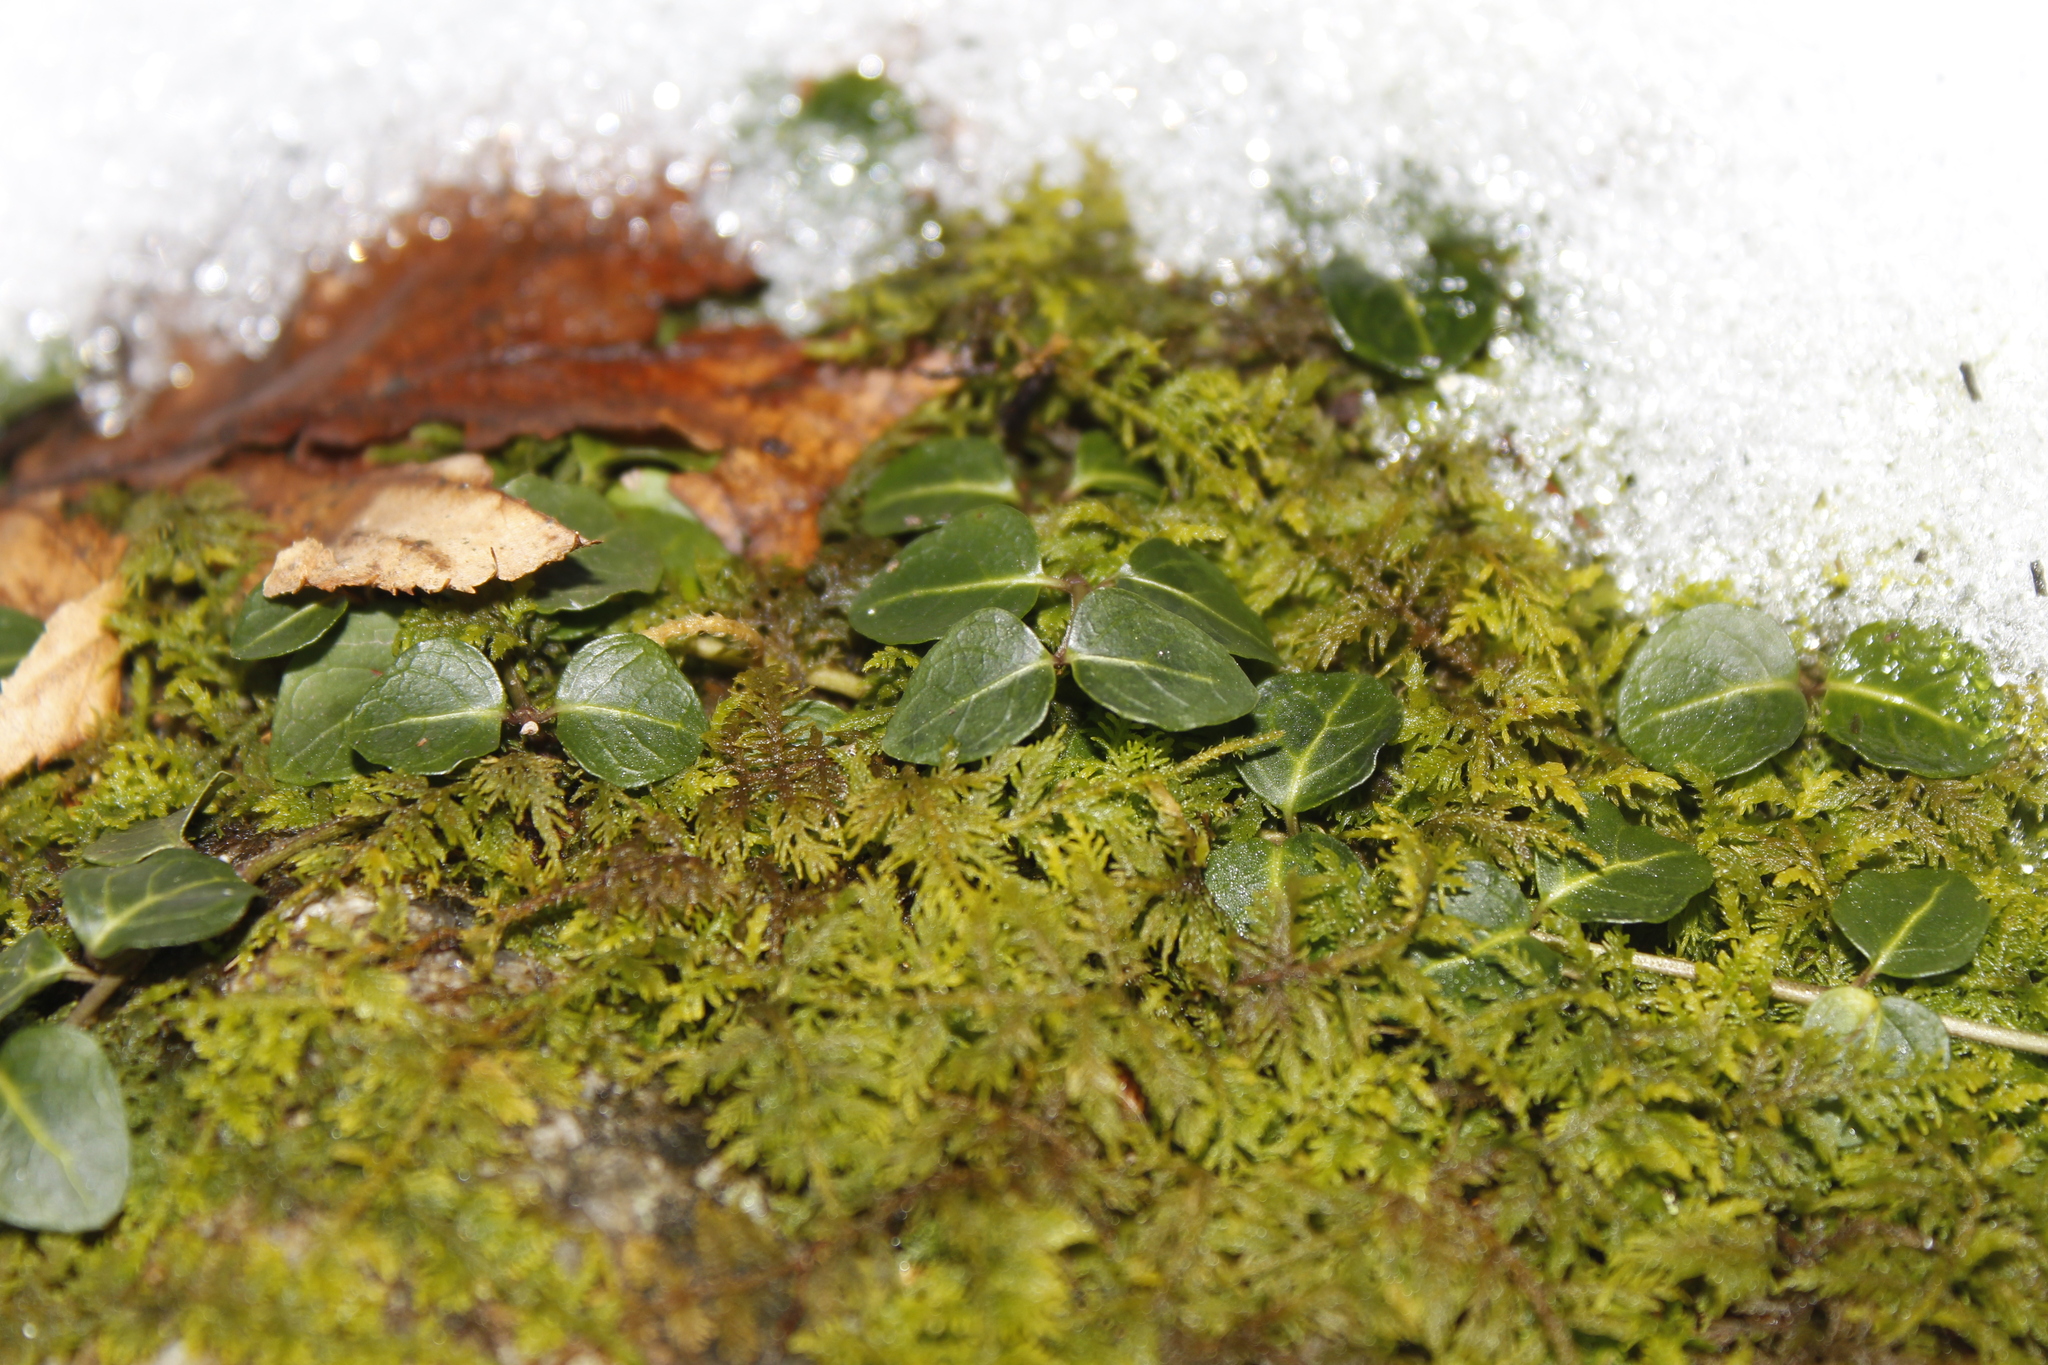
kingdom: Plantae
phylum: Tracheophyta
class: Magnoliopsida
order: Gentianales
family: Rubiaceae
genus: Mitchella
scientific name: Mitchella repens
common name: Partridge-berry
